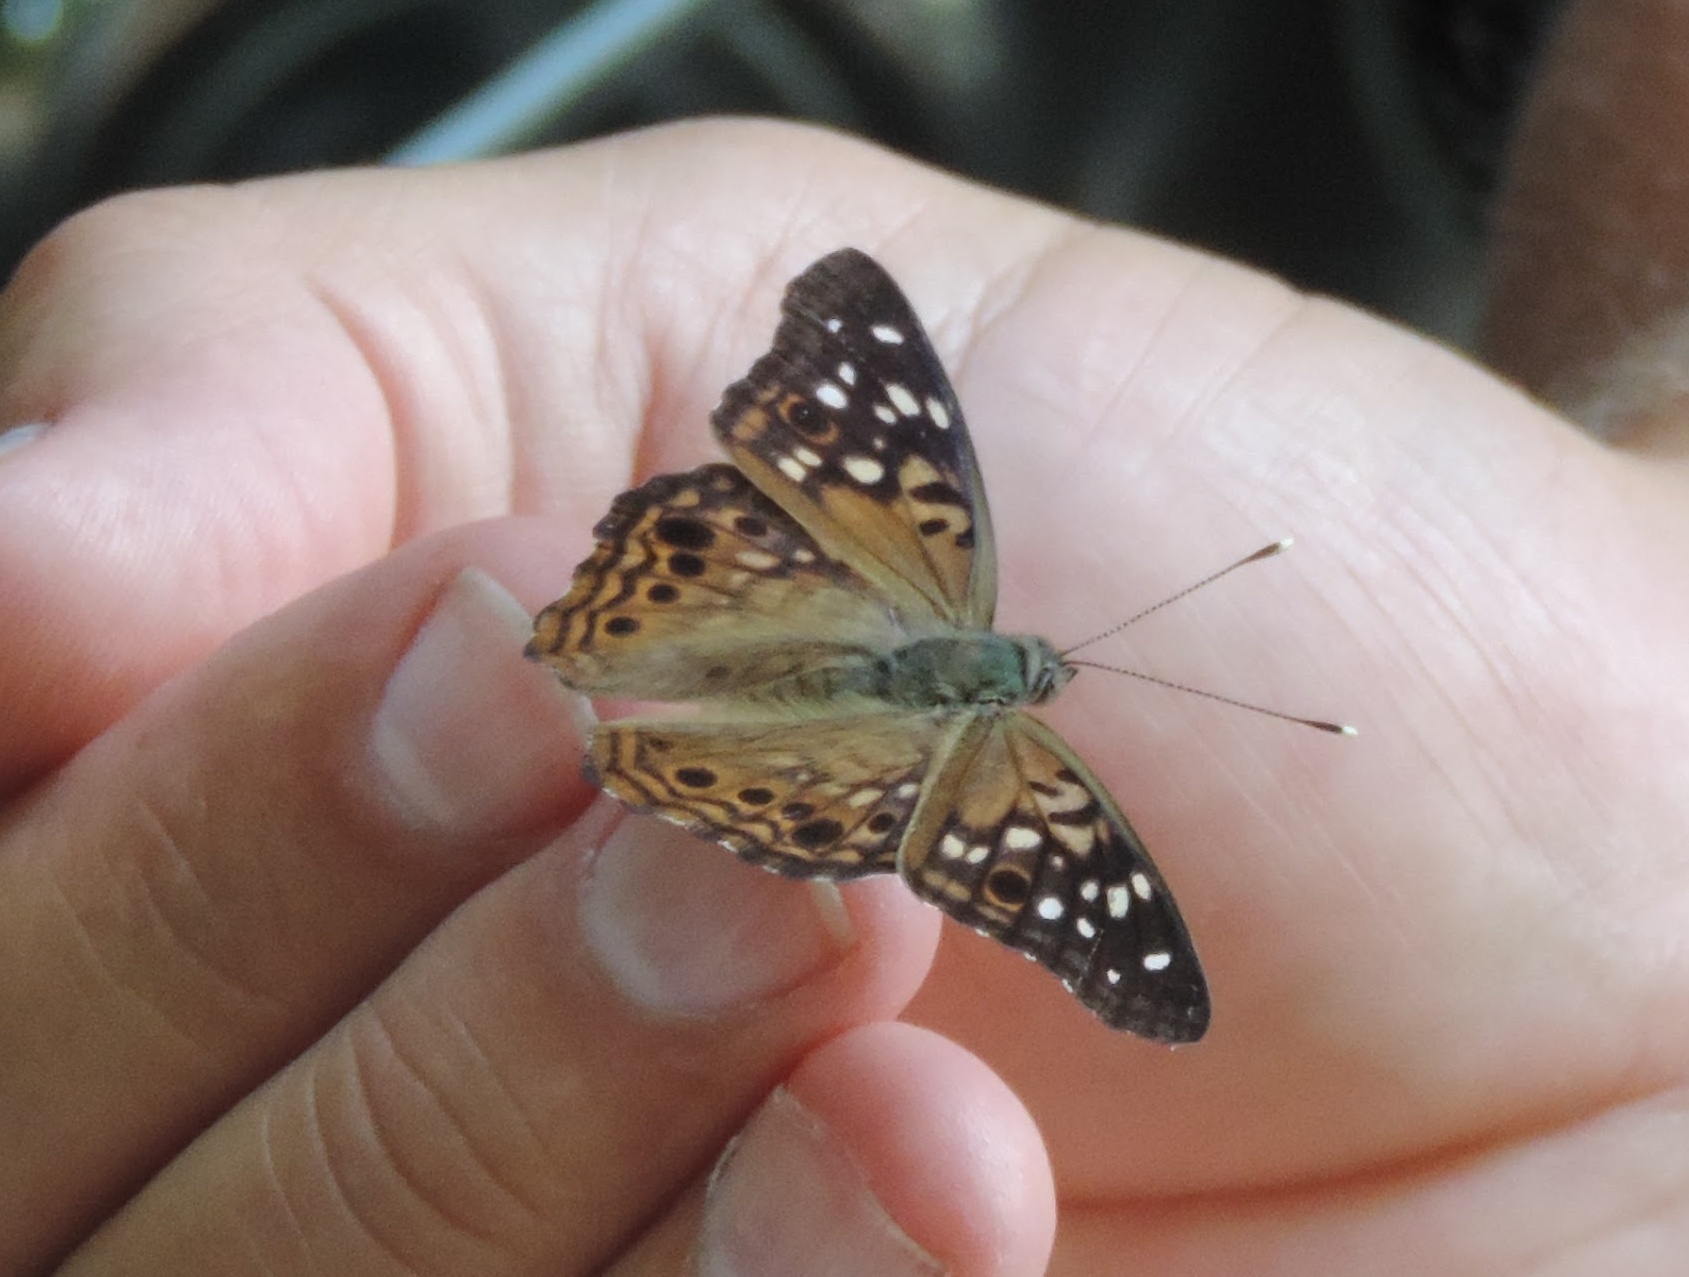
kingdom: Animalia
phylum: Arthropoda
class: Insecta
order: Lepidoptera
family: Nymphalidae
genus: Asterocampa
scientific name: Asterocampa celtis
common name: Hackberry emperor
